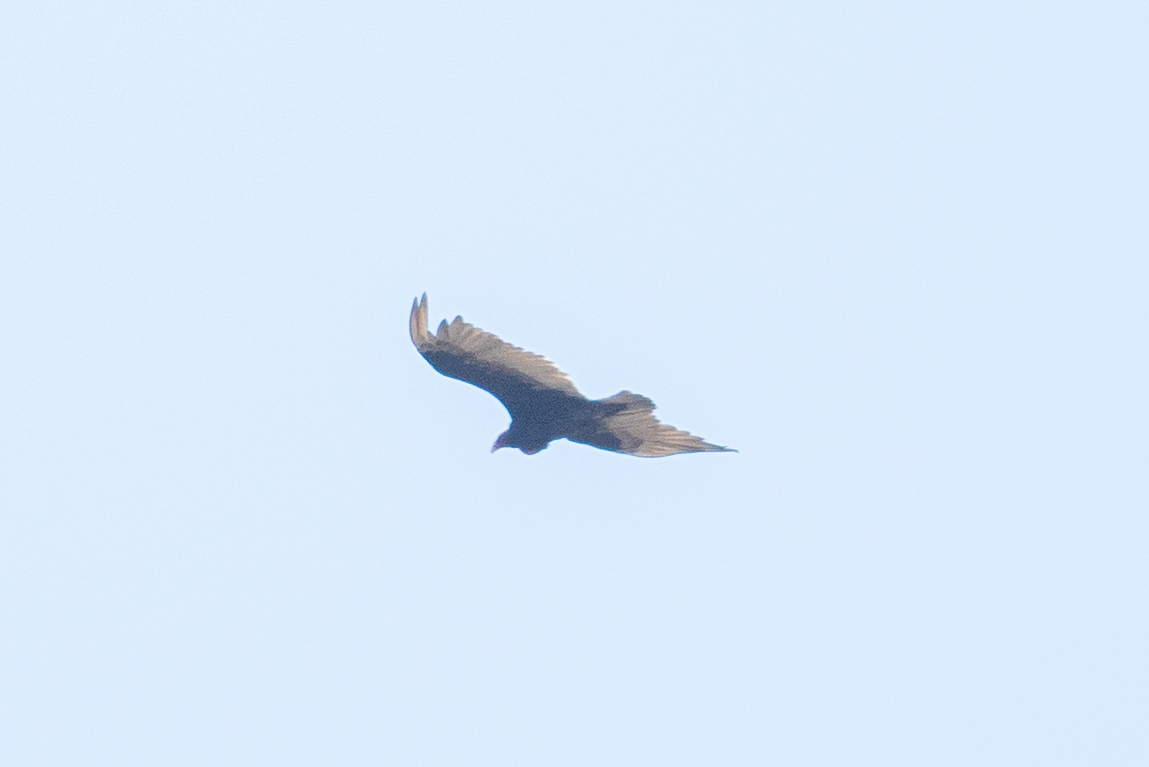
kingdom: Animalia
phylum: Chordata
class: Aves
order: Accipitriformes
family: Cathartidae
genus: Cathartes
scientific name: Cathartes aura
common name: Turkey vulture
